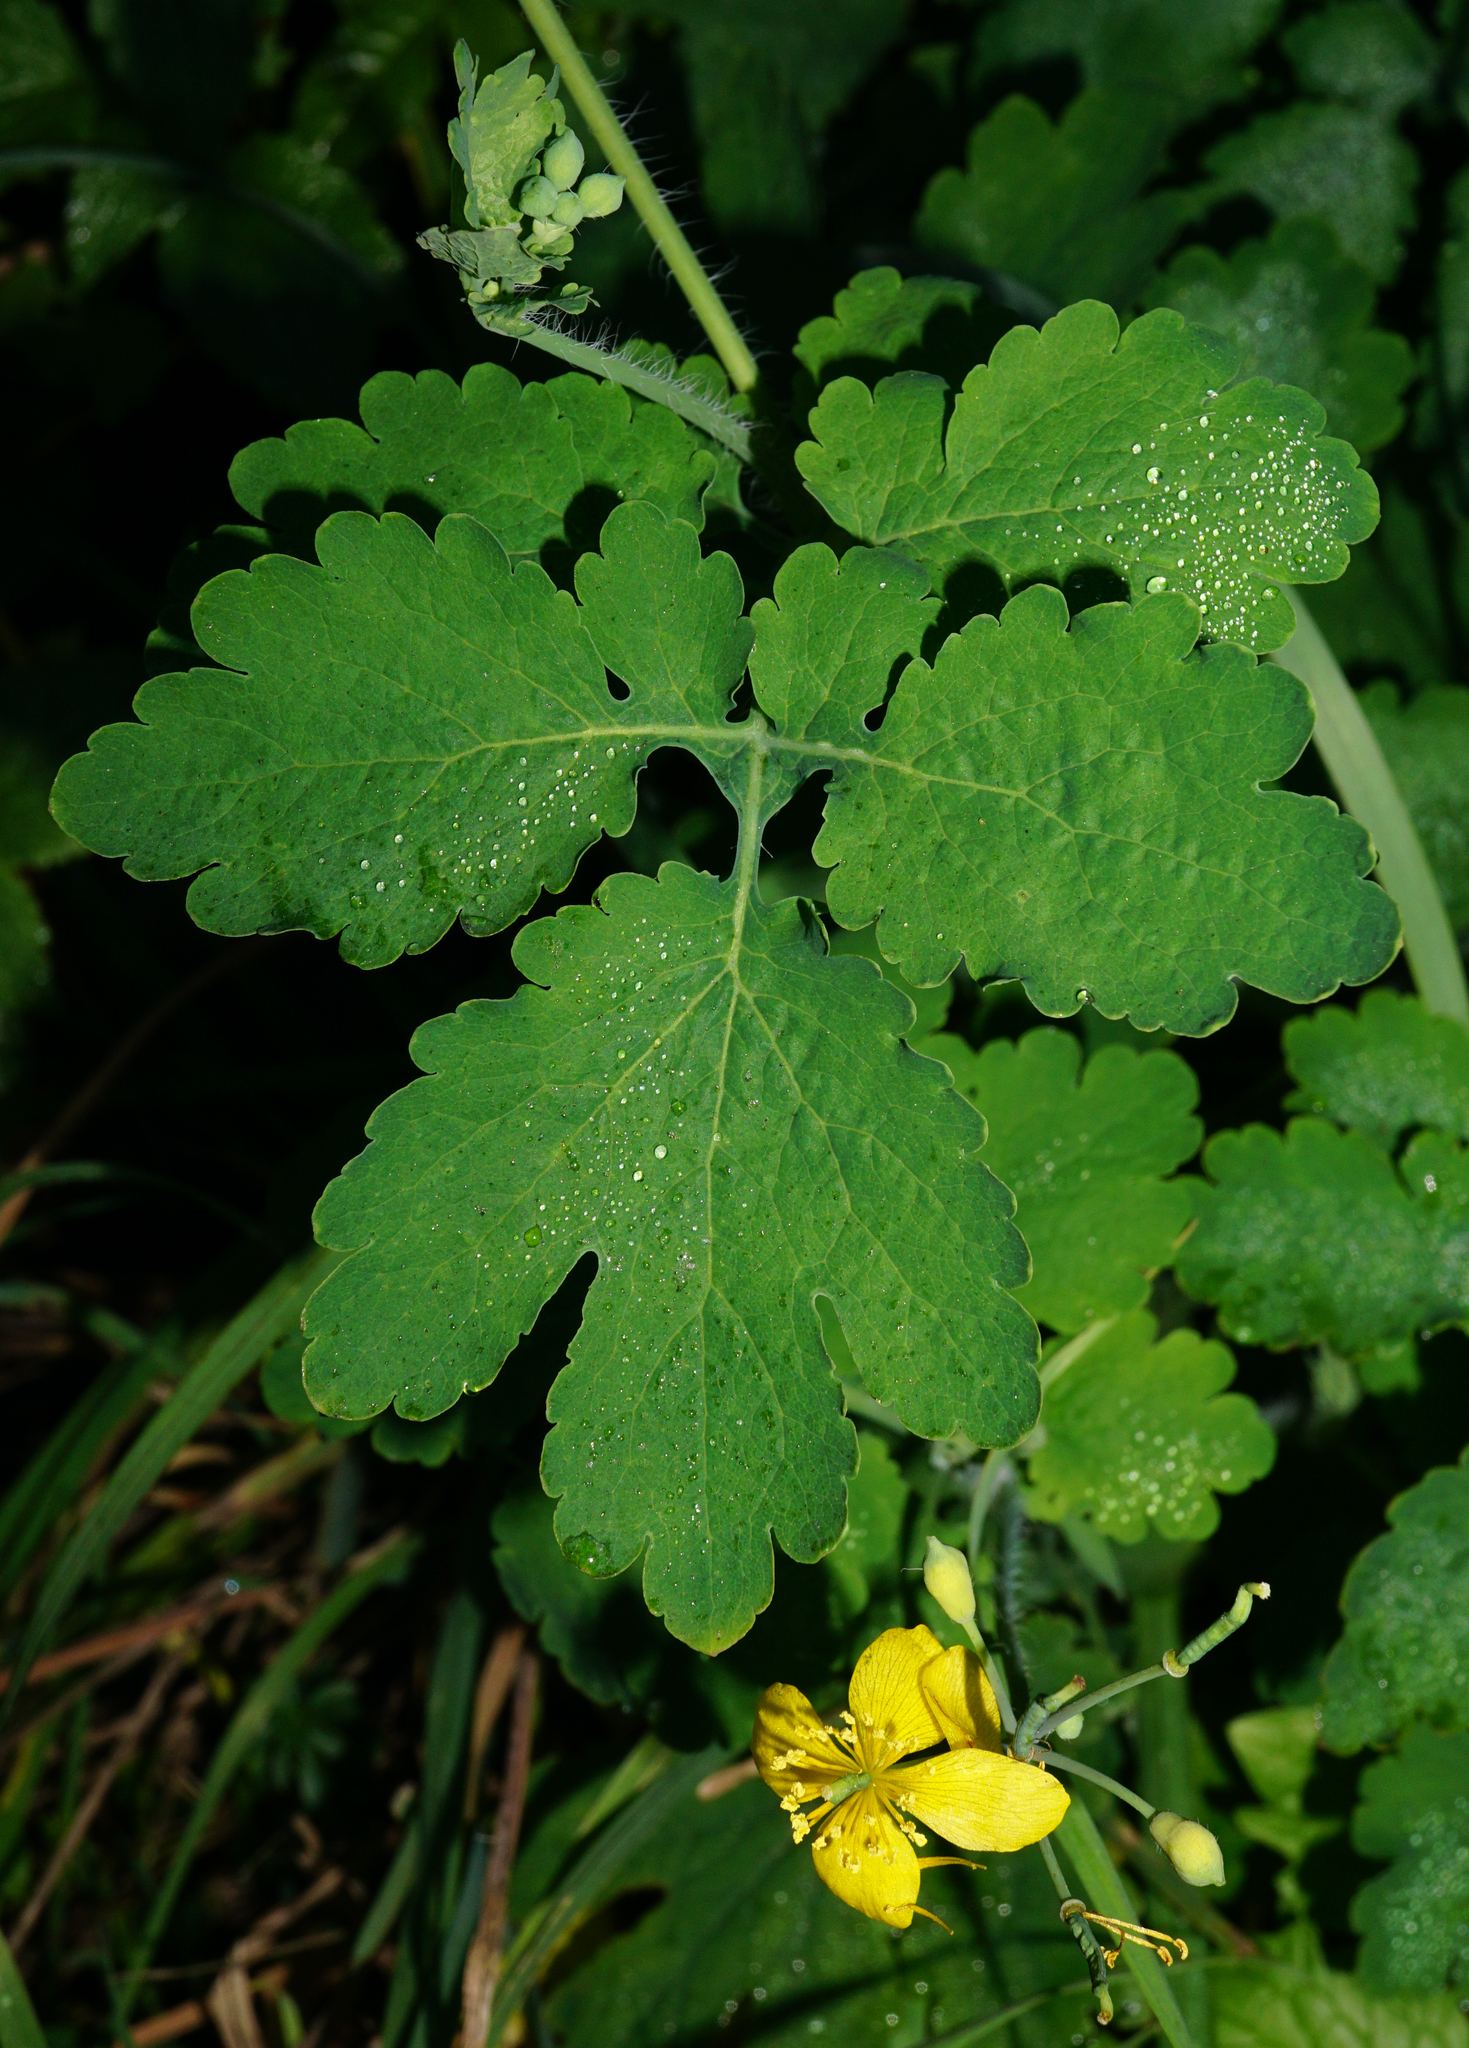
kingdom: Plantae
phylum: Tracheophyta
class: Magnoliopsida
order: Ranunculales
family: Papaveraceae
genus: Chelidonium
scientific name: Chelidonium majus
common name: Greater celandine
